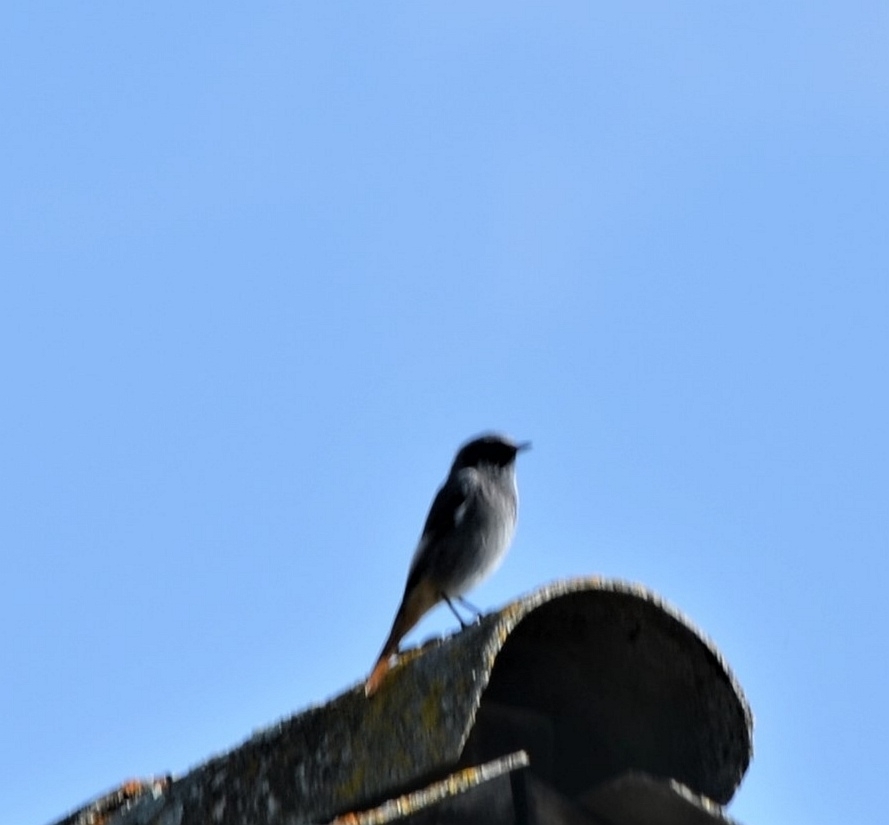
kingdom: Animalia
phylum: Chordata
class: Aves
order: Passeriformes
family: Muscicapidae
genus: Phoenicurus
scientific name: Phoenicurus ochruros
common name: Black redstart
